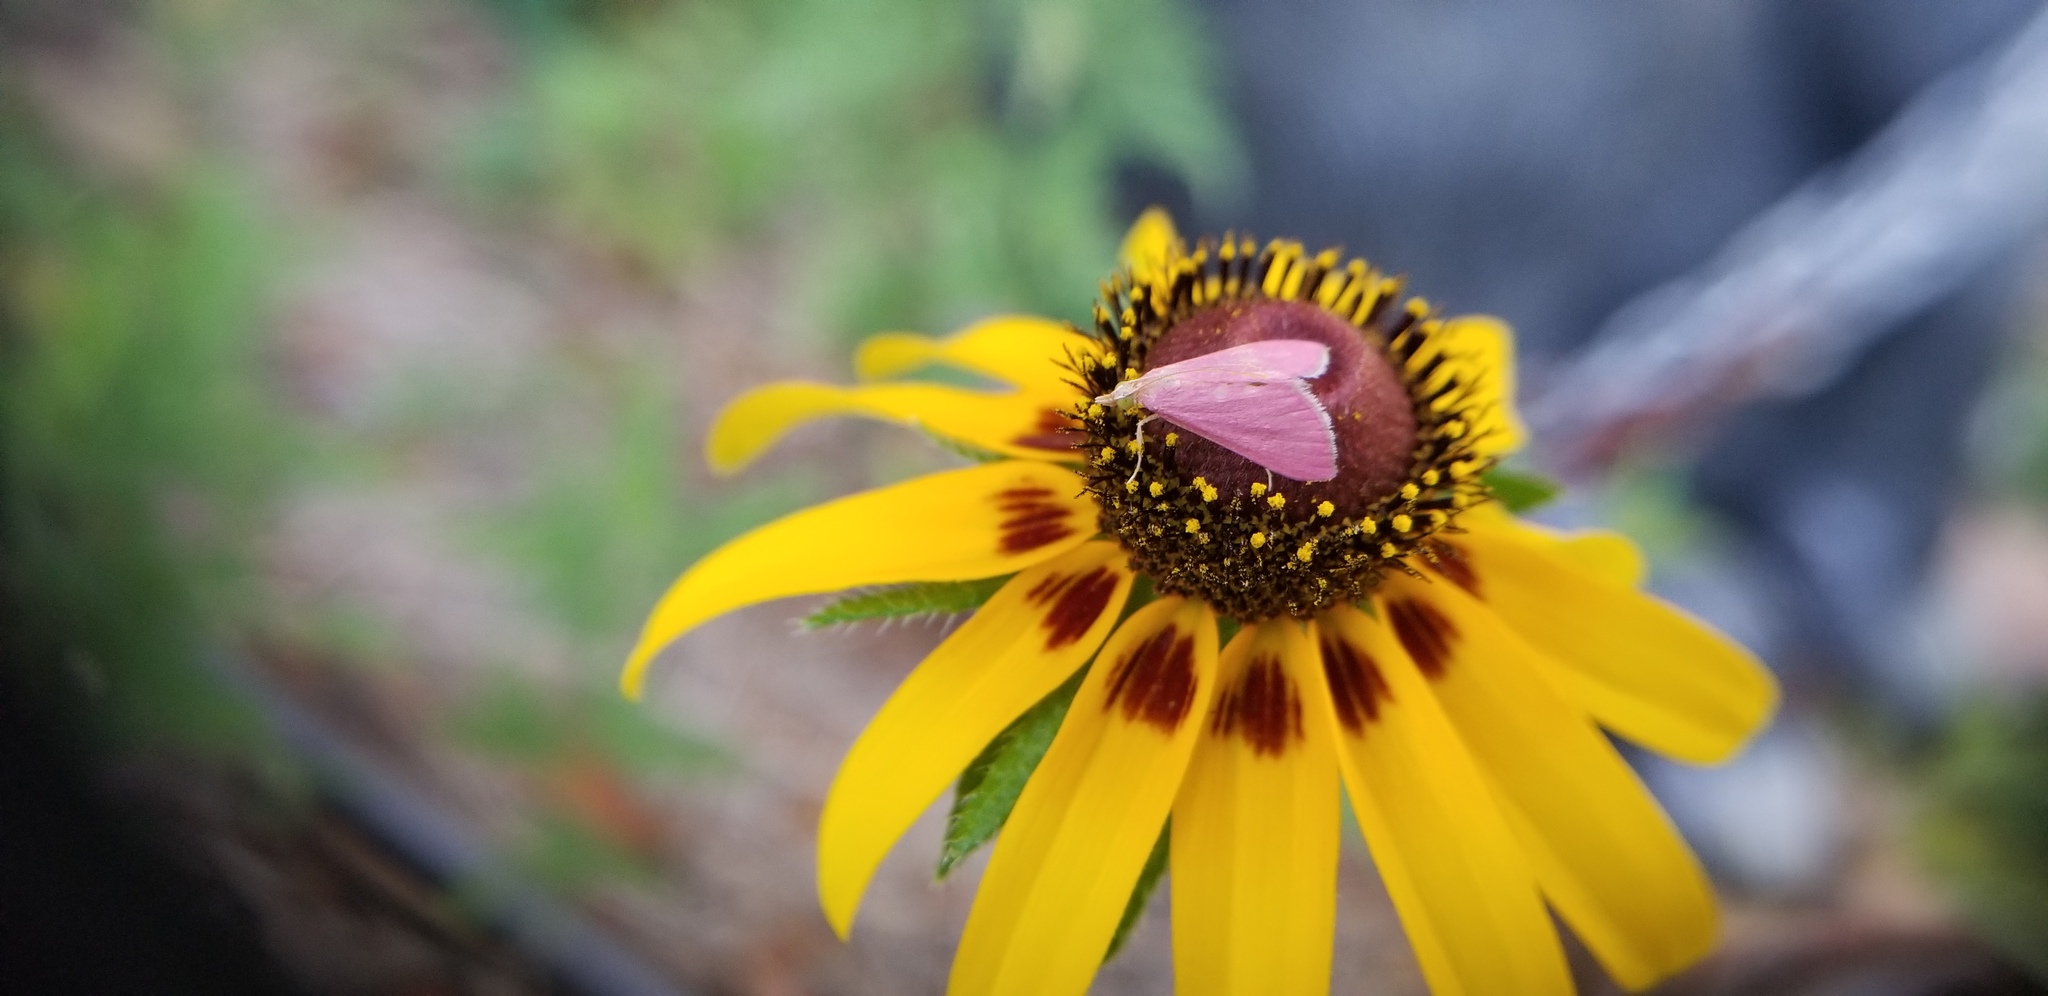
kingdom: Animalia
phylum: Arthropoda
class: Insecta
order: Lepidoptera
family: Crambidae
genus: Pyrausta
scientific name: Pyrausta inornatalis
